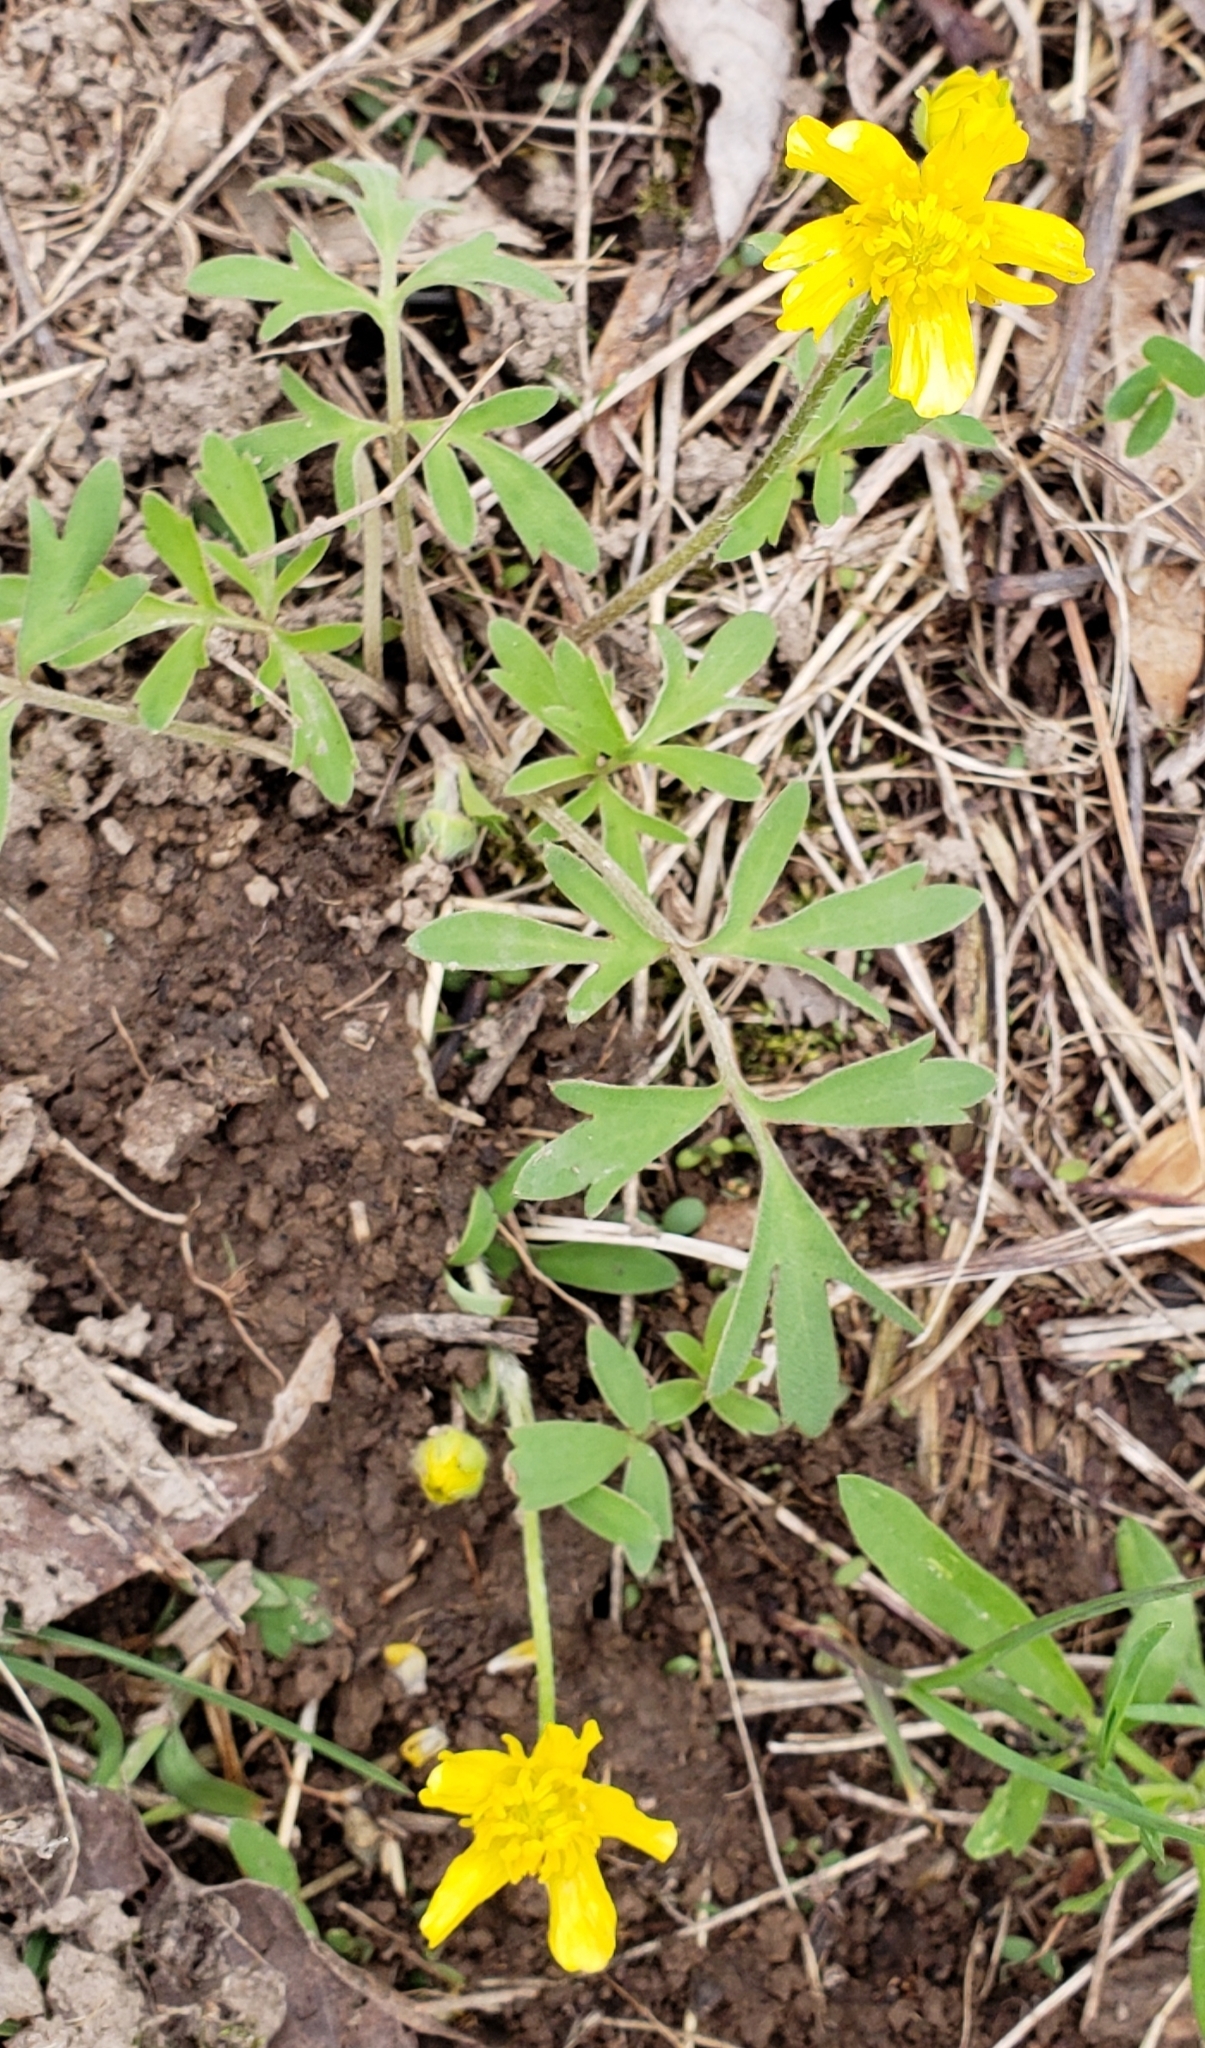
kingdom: Plantae
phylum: Tracheophyta
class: Magnoliopsida
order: Ranunculales
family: Ranunculaceae
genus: Ranunculus
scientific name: Ranunculus fascicularis
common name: Early buttercup
